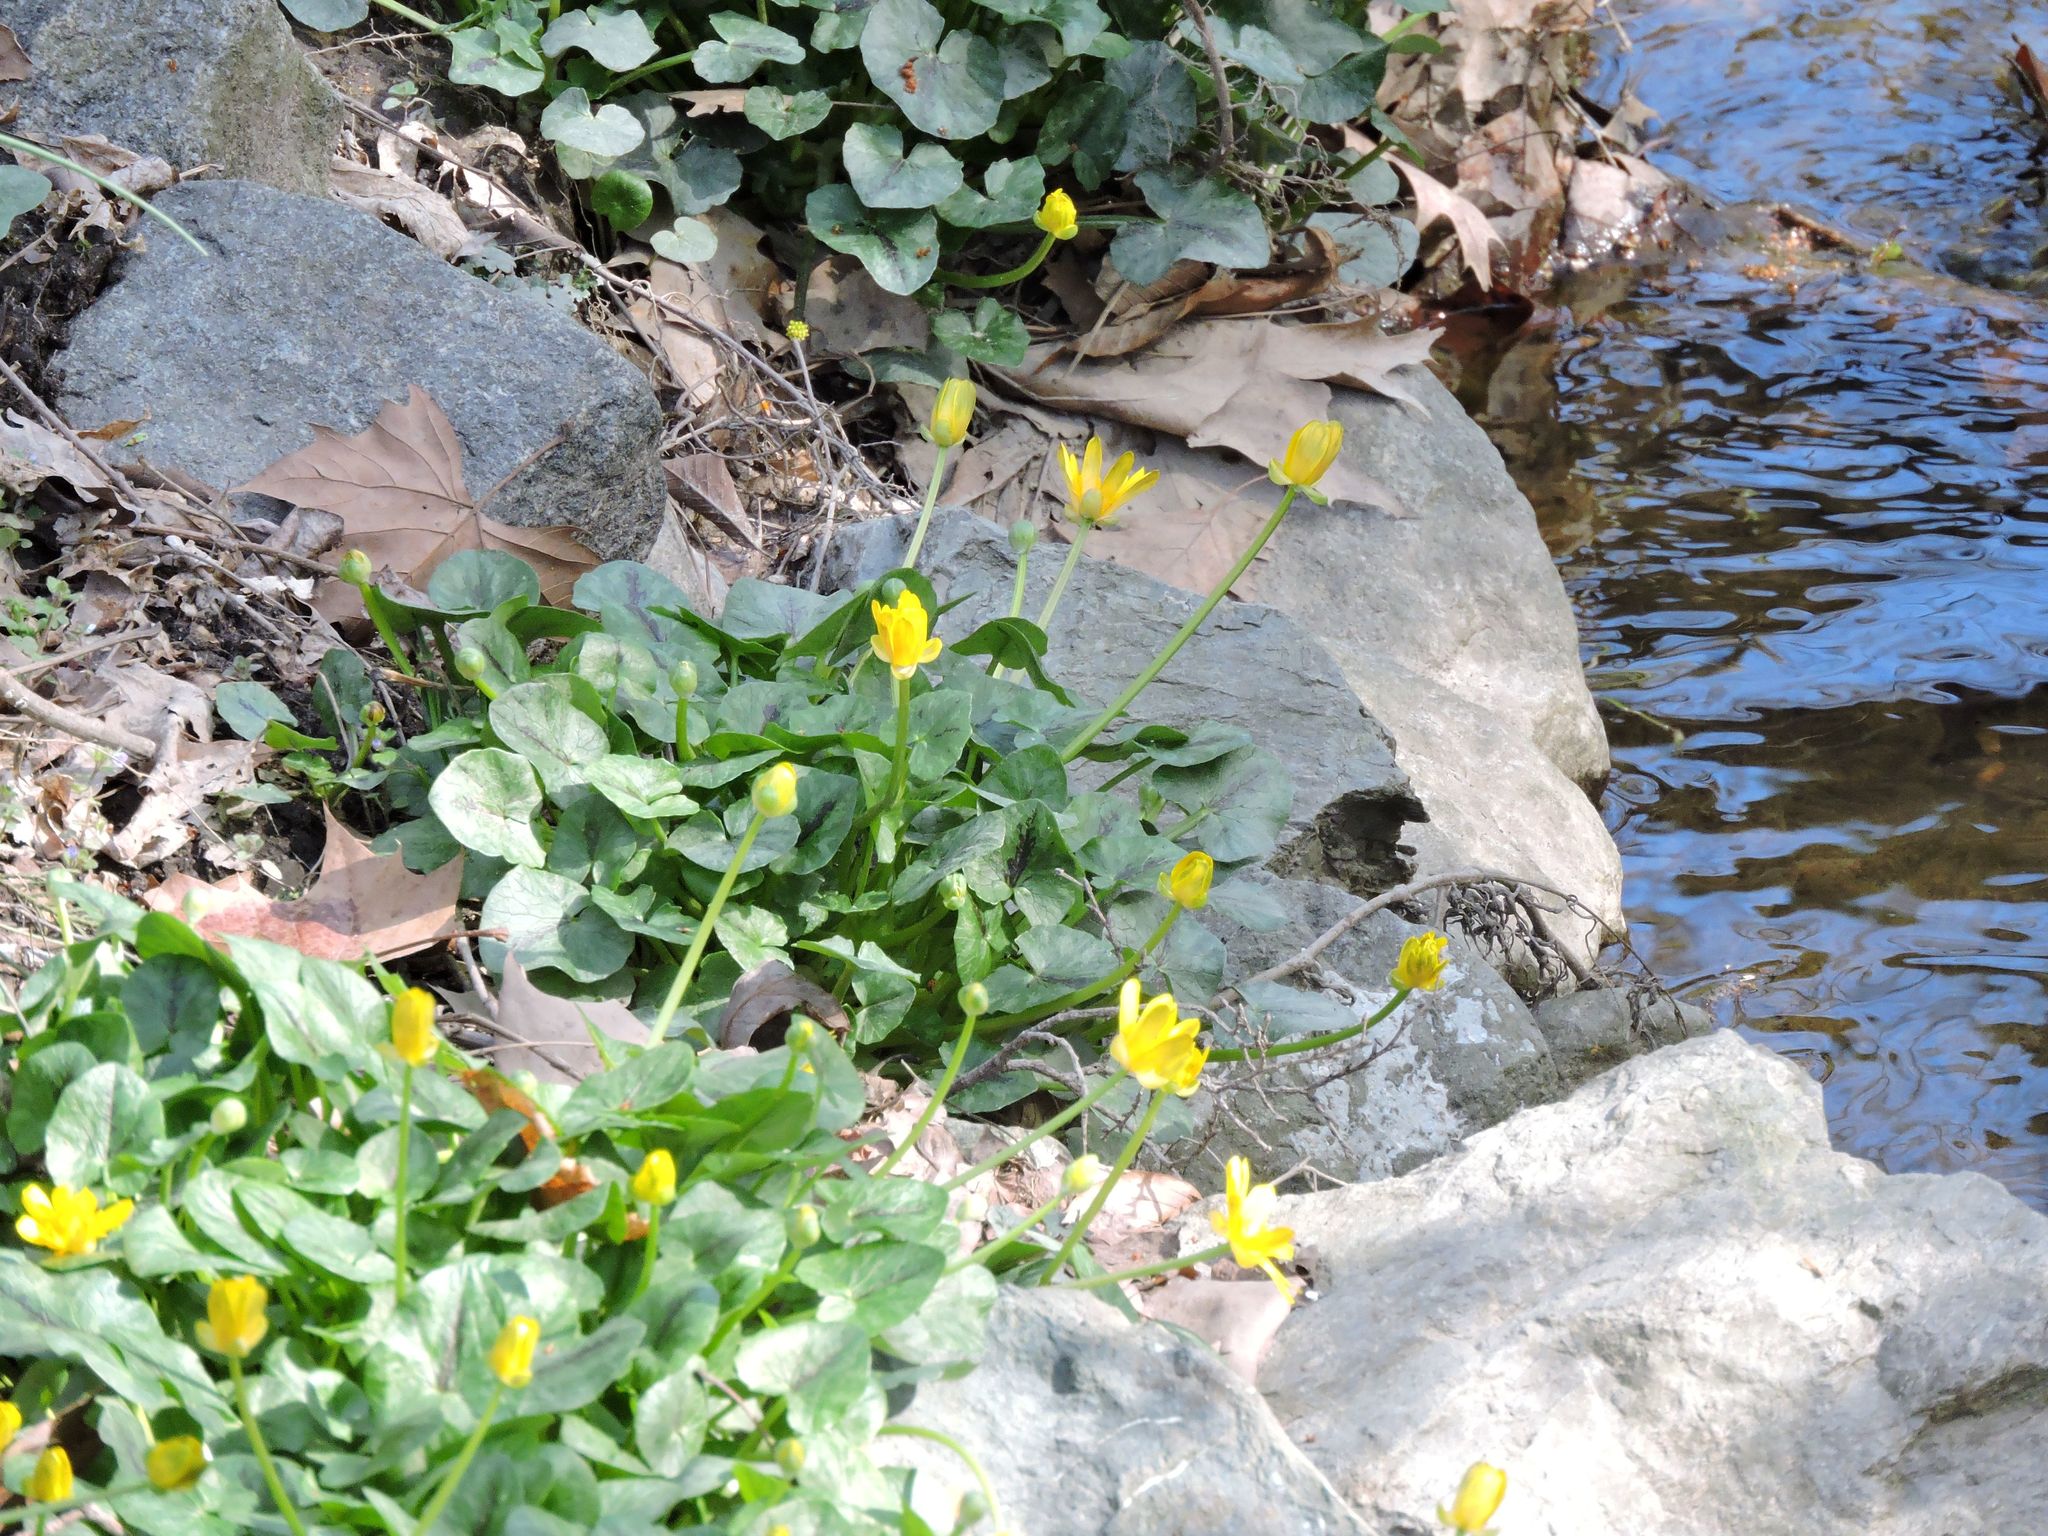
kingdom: Plantae
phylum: Tracheophyta
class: Magnoliopsida
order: Ranunculales
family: Ranunculaceae
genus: Ficaria
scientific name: Ficaria verna
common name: Lesser celandine
